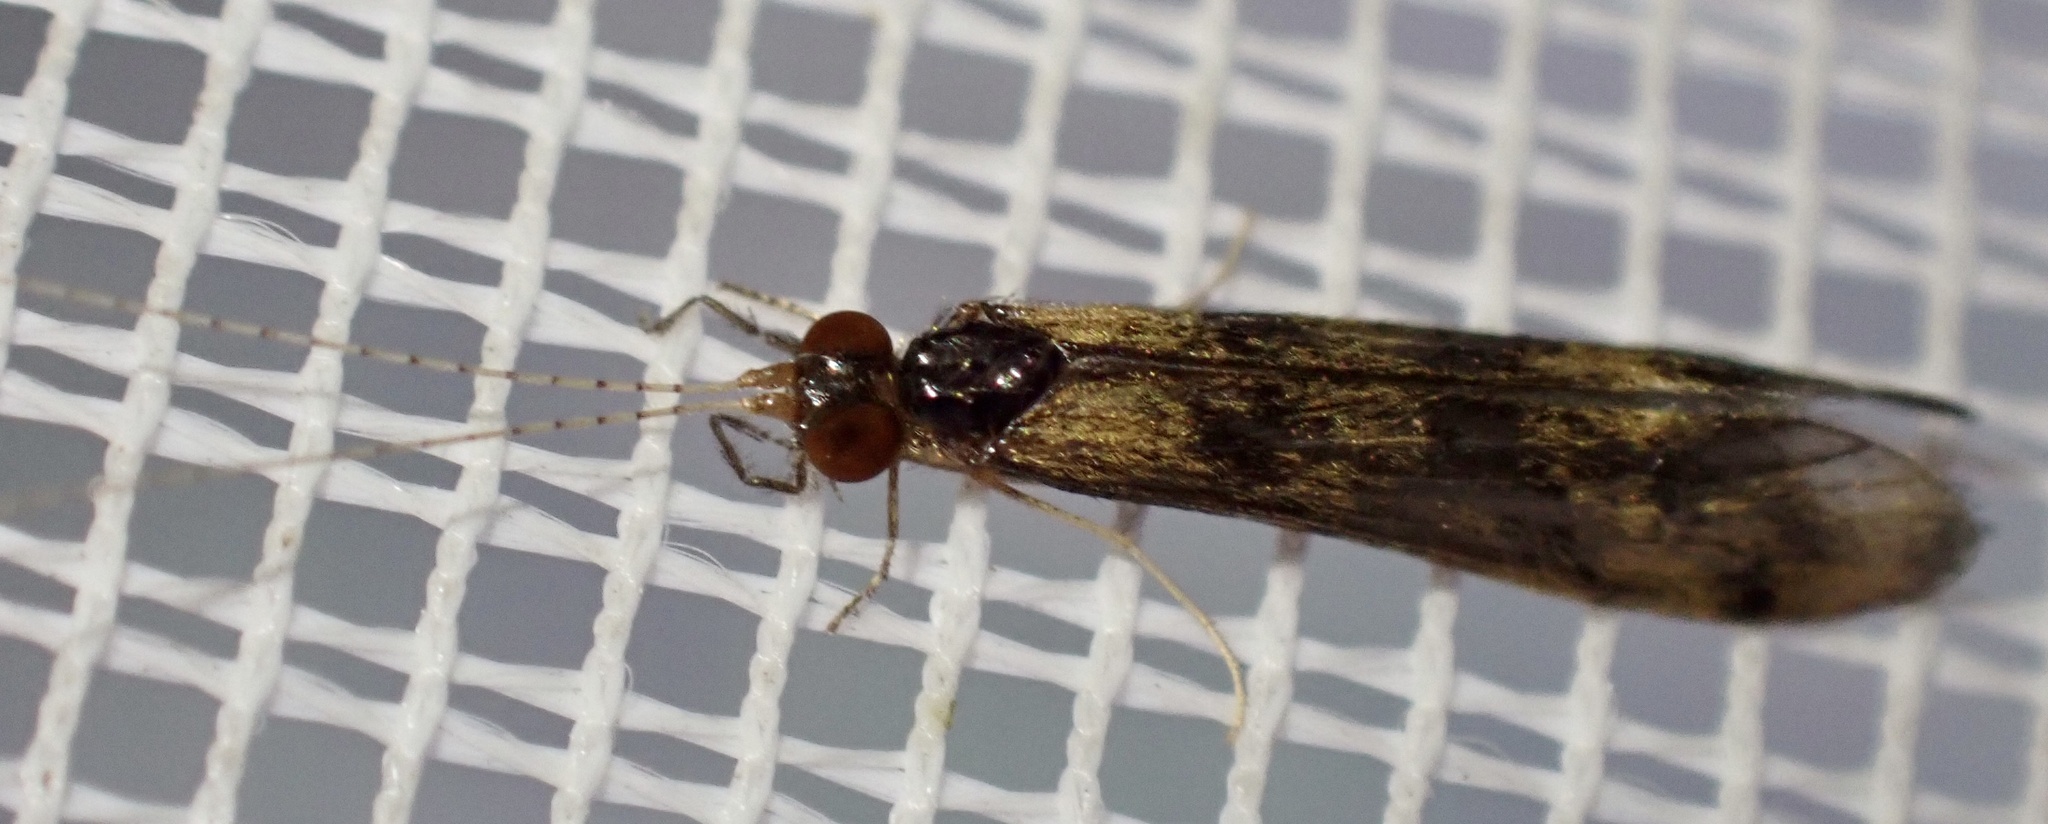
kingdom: Animalia
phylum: Arthropoda
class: Insecta
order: Trichoptera
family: Leptoceridae
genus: Mystacides
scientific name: Mystacides longicornis
